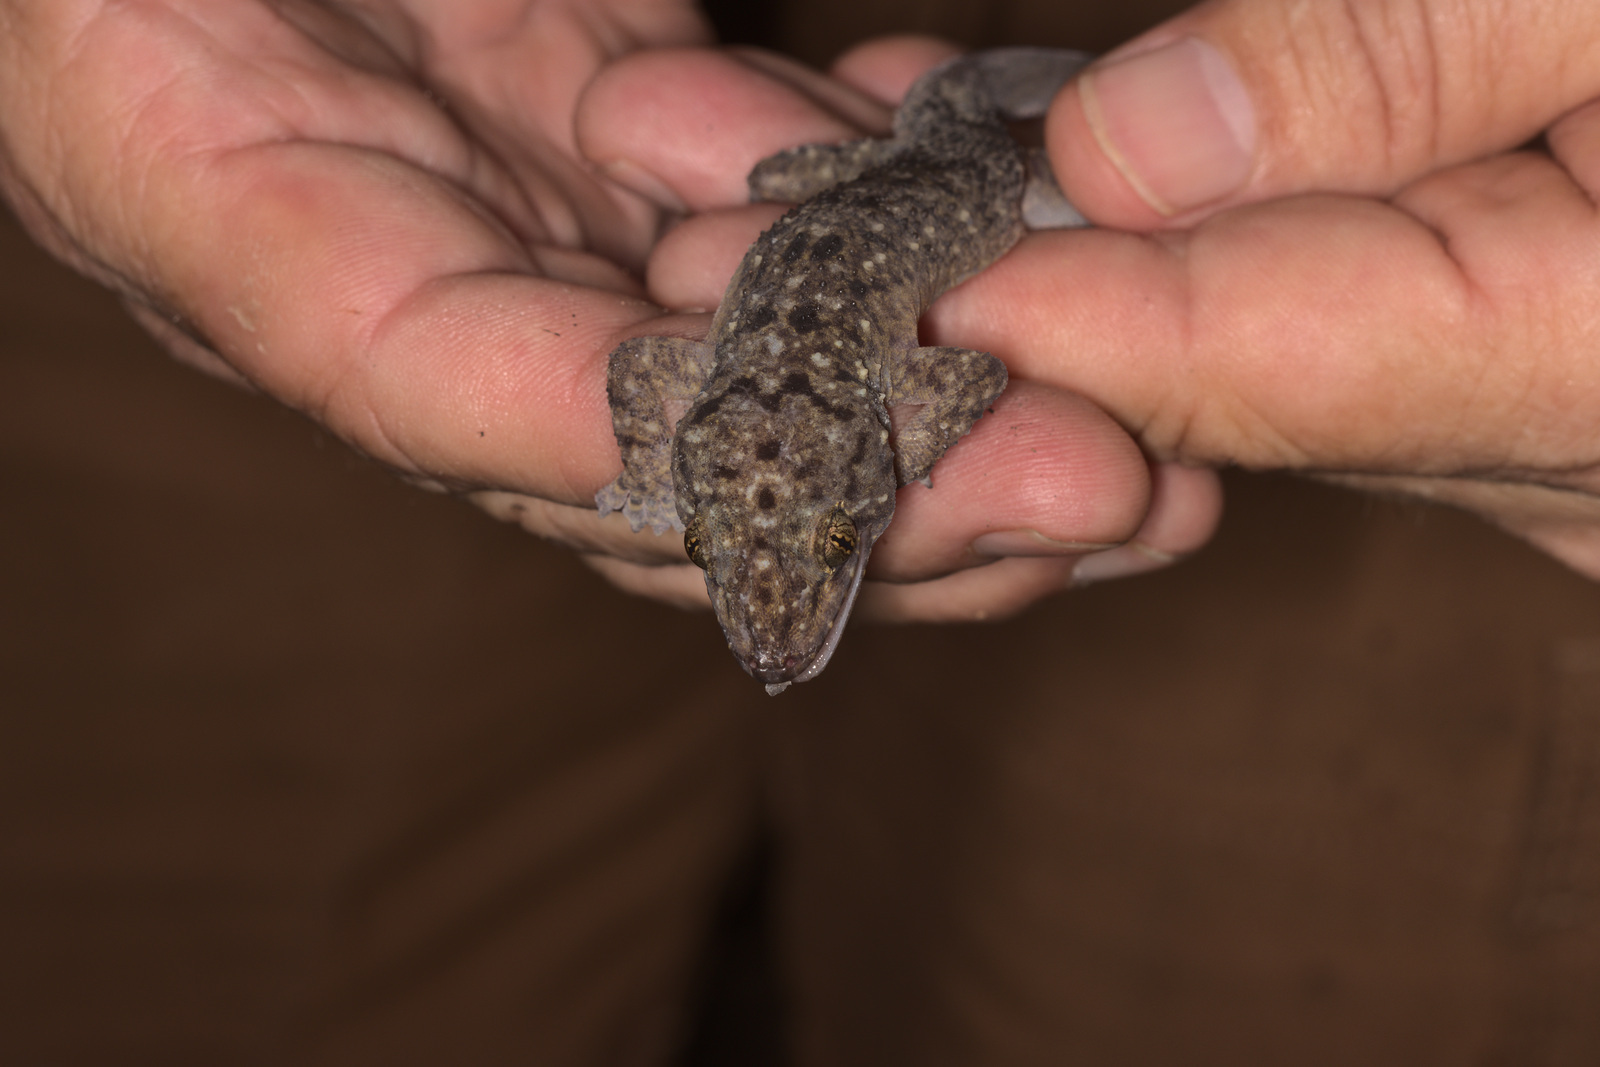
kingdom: Animalia
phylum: Chordata
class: Squamata
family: Gekkonidae
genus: Gekko
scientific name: Gekko monarchus
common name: Spotted house gecko
